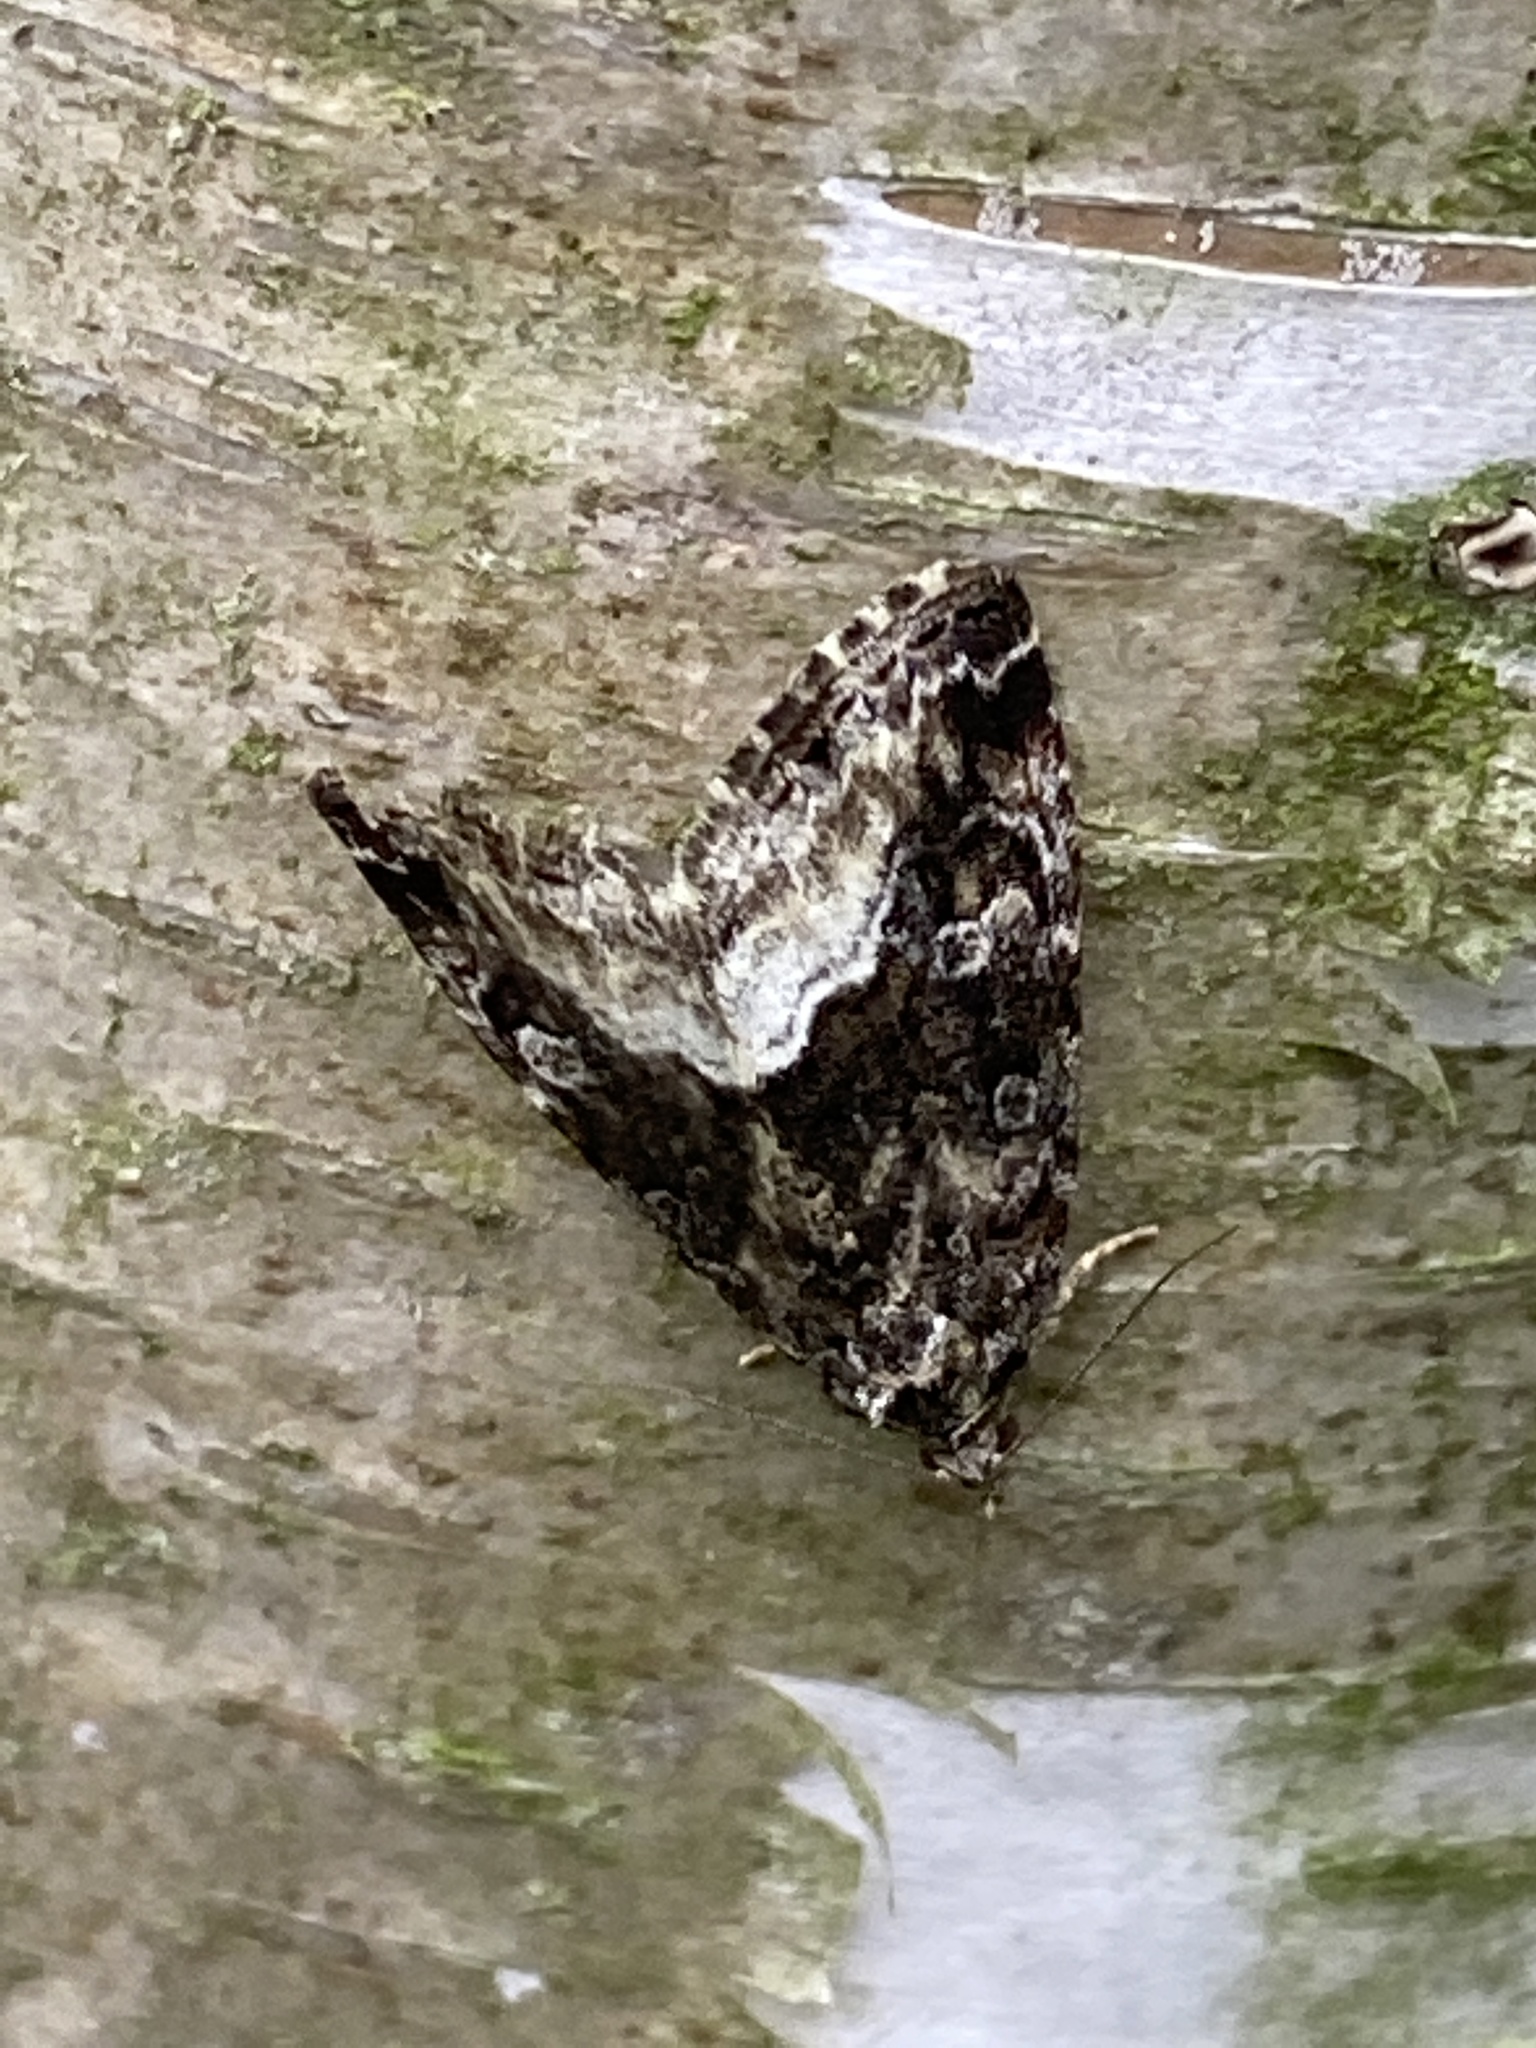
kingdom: Animalia
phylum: Arthropoda
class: Insecta
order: Lepidoptera
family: Noctuidae
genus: Deltote
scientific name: Deltote pygarga
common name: Marbled white spot
